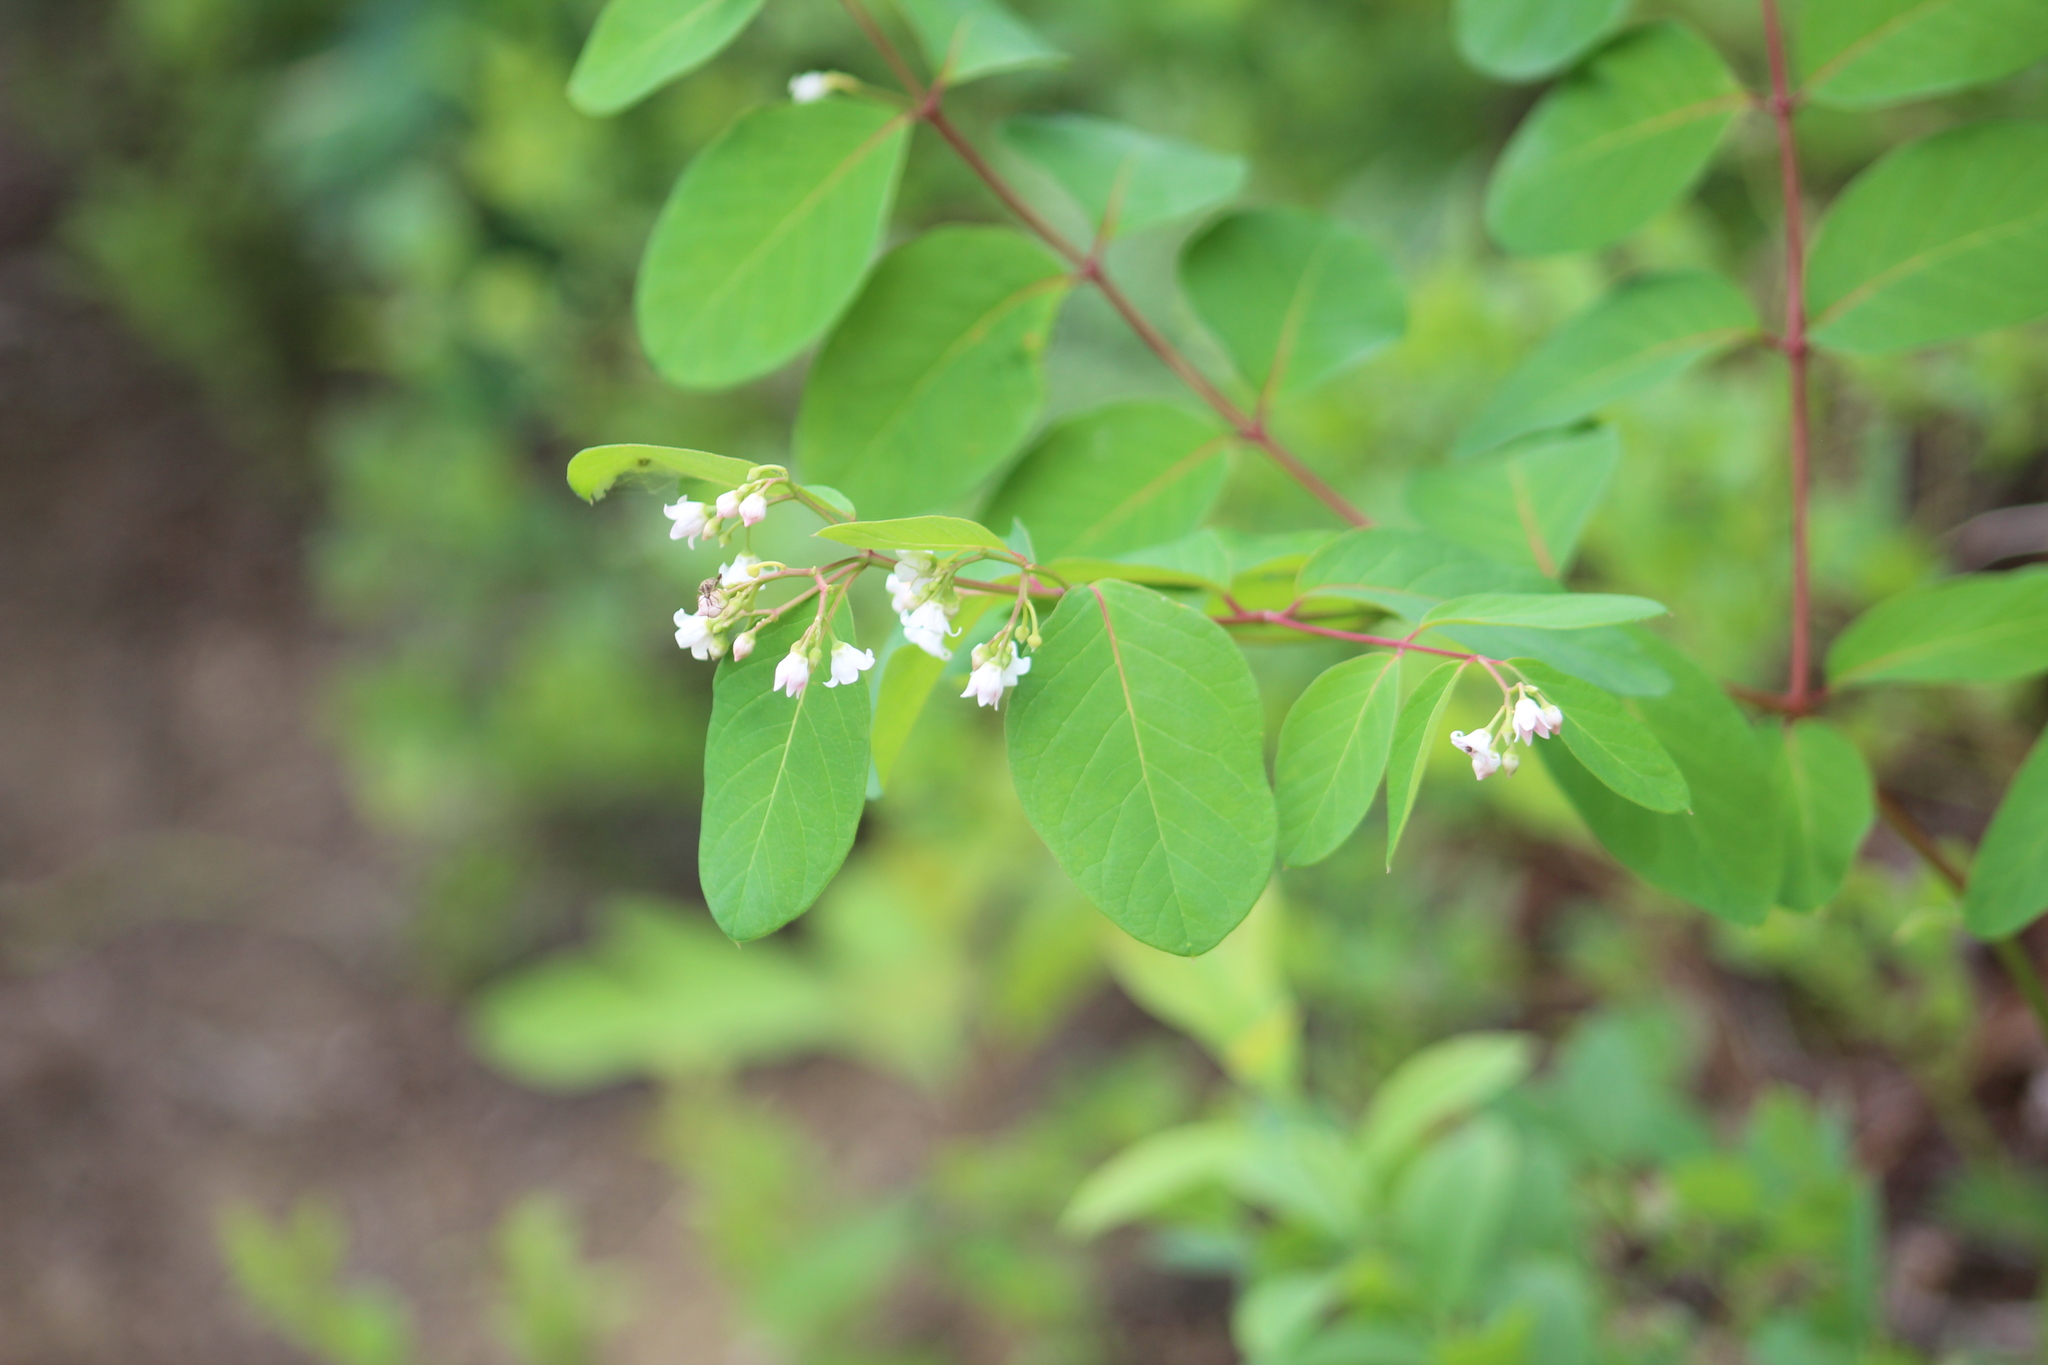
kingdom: Plantae
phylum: Tracheophyta
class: Magnoliopsida
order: Gentianales
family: Apocynaceae
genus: Apocynum
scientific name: Apocynum androsaemifolium
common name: Spreading dogbane
